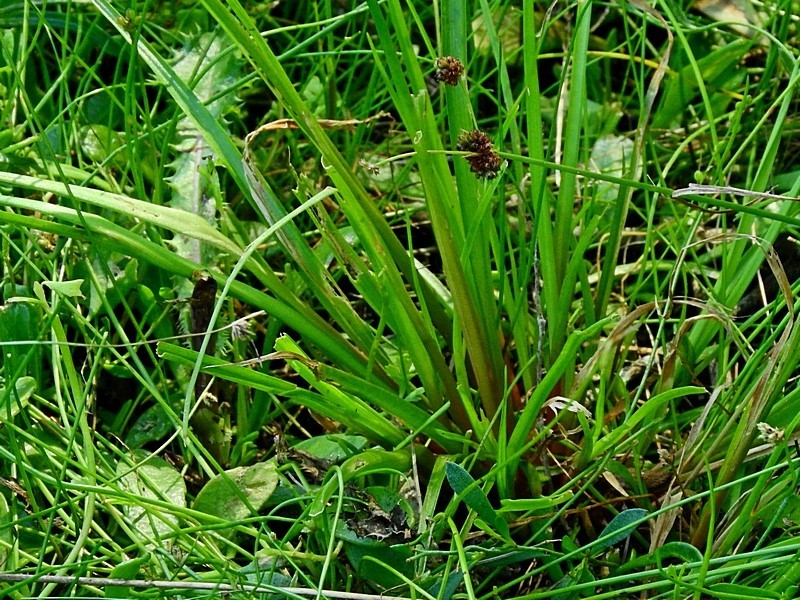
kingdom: Plantae
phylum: Tracheophyta
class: Liliopsida
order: Poales
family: Juncaceae
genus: Juncus
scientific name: Juncus planifolius
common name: Broadleaf rush
